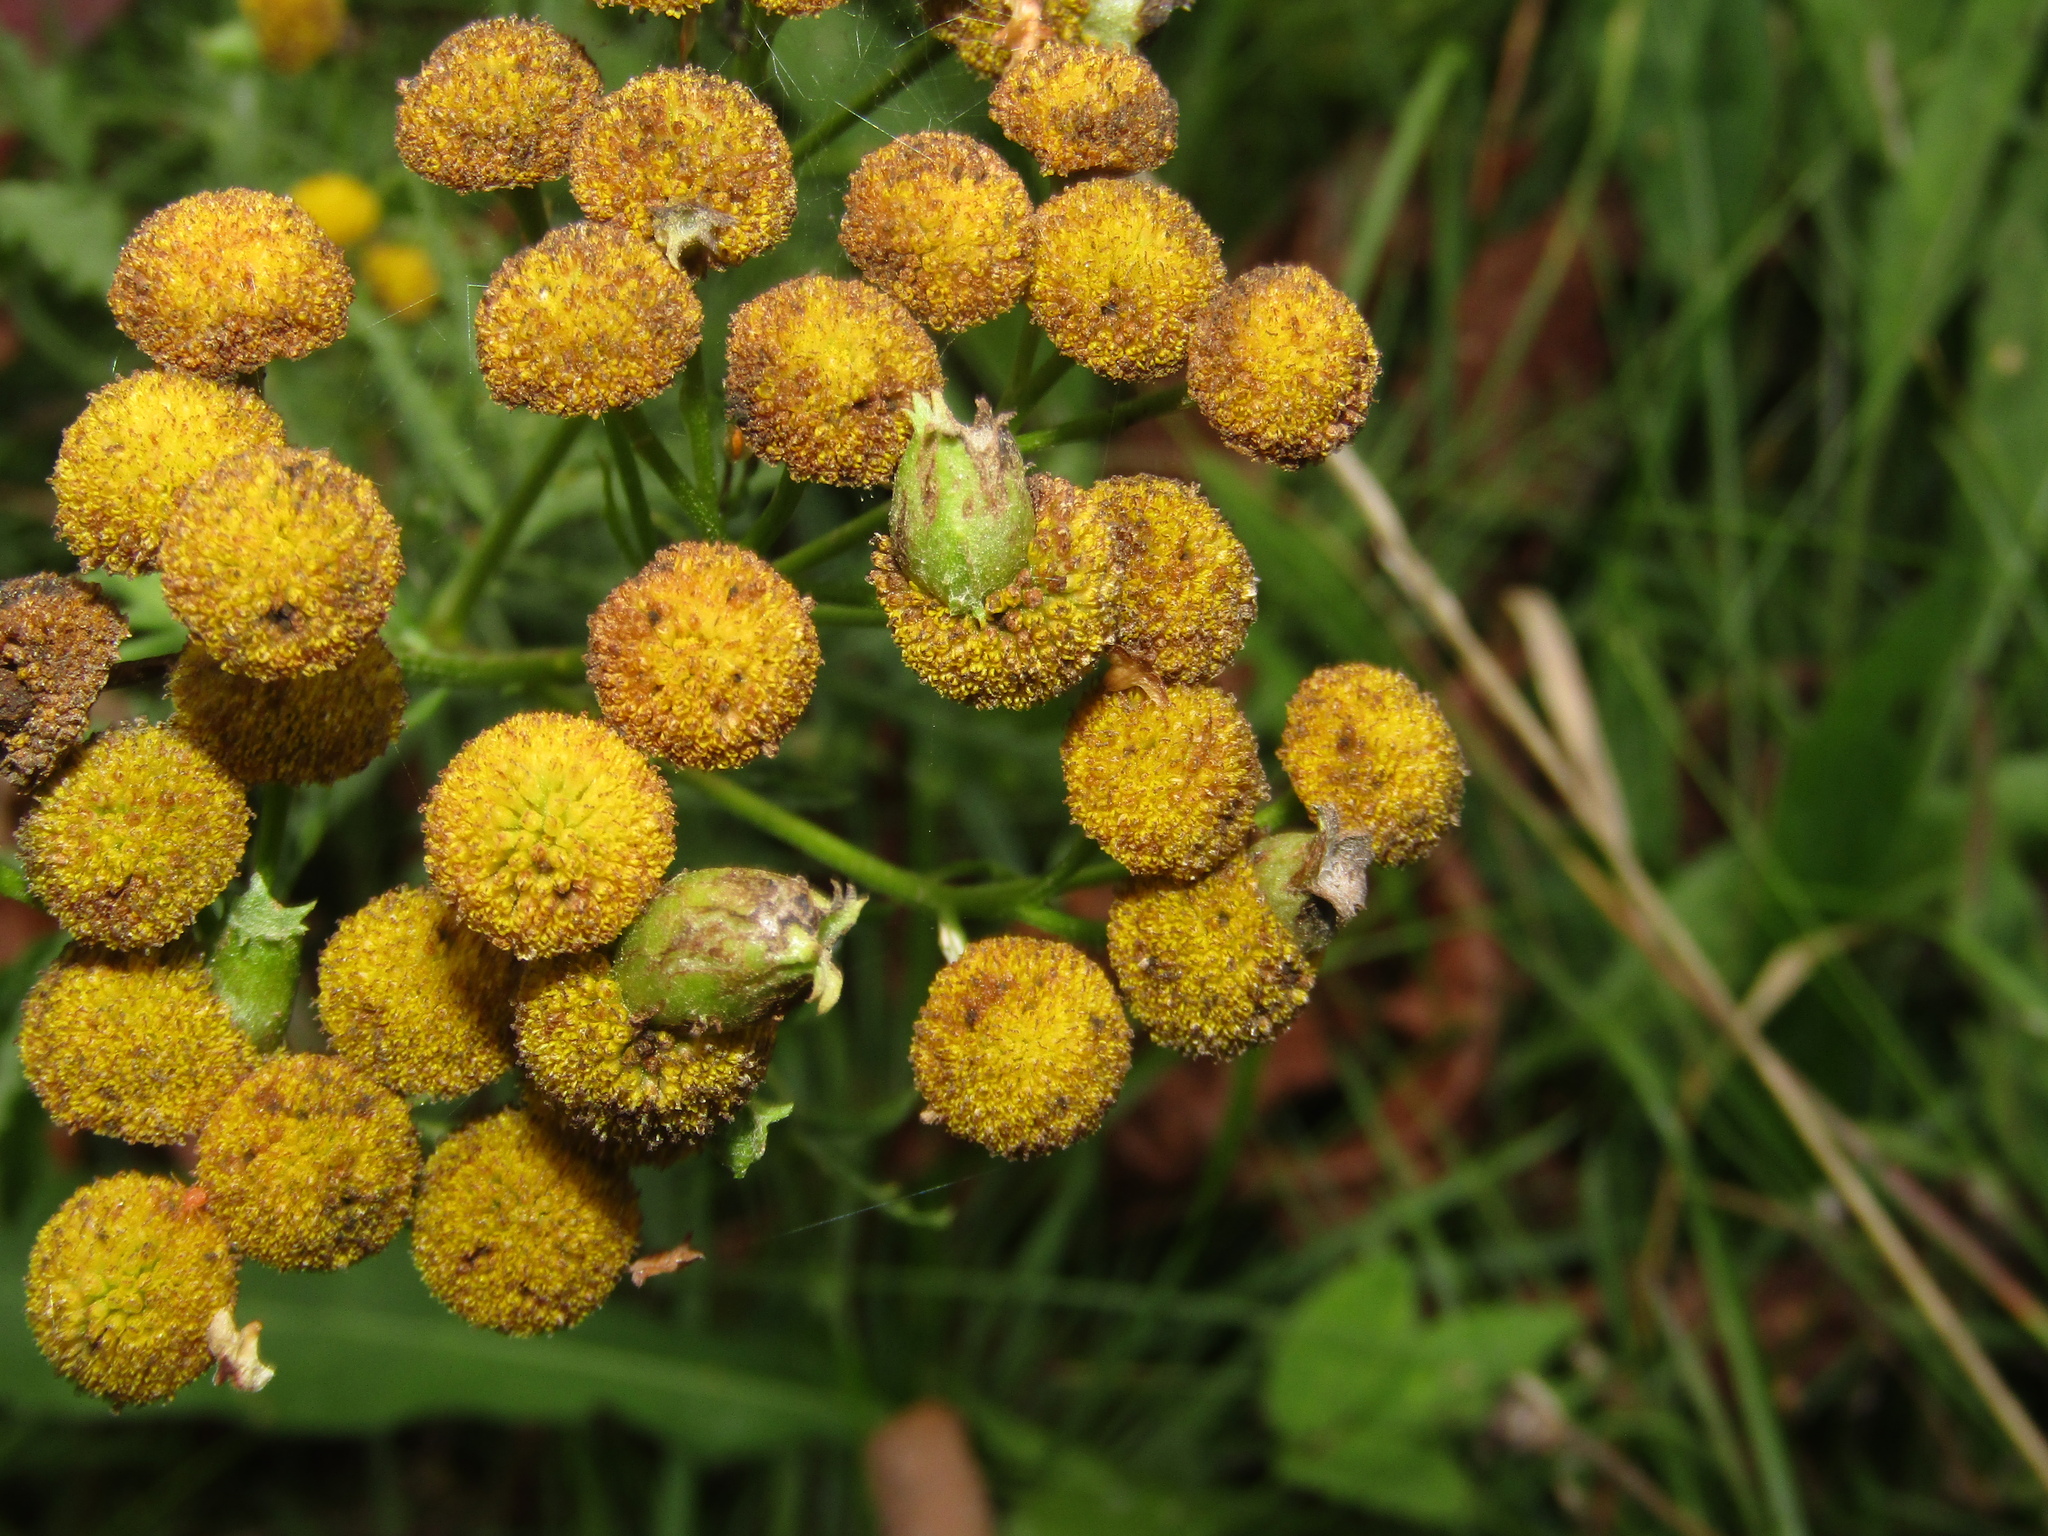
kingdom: Plantae
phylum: Tracheophyta
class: Magnoliopsida
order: Asterales
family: Asteraceae
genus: Tanacetum
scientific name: Tanacetum vulgare
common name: Common tansy
